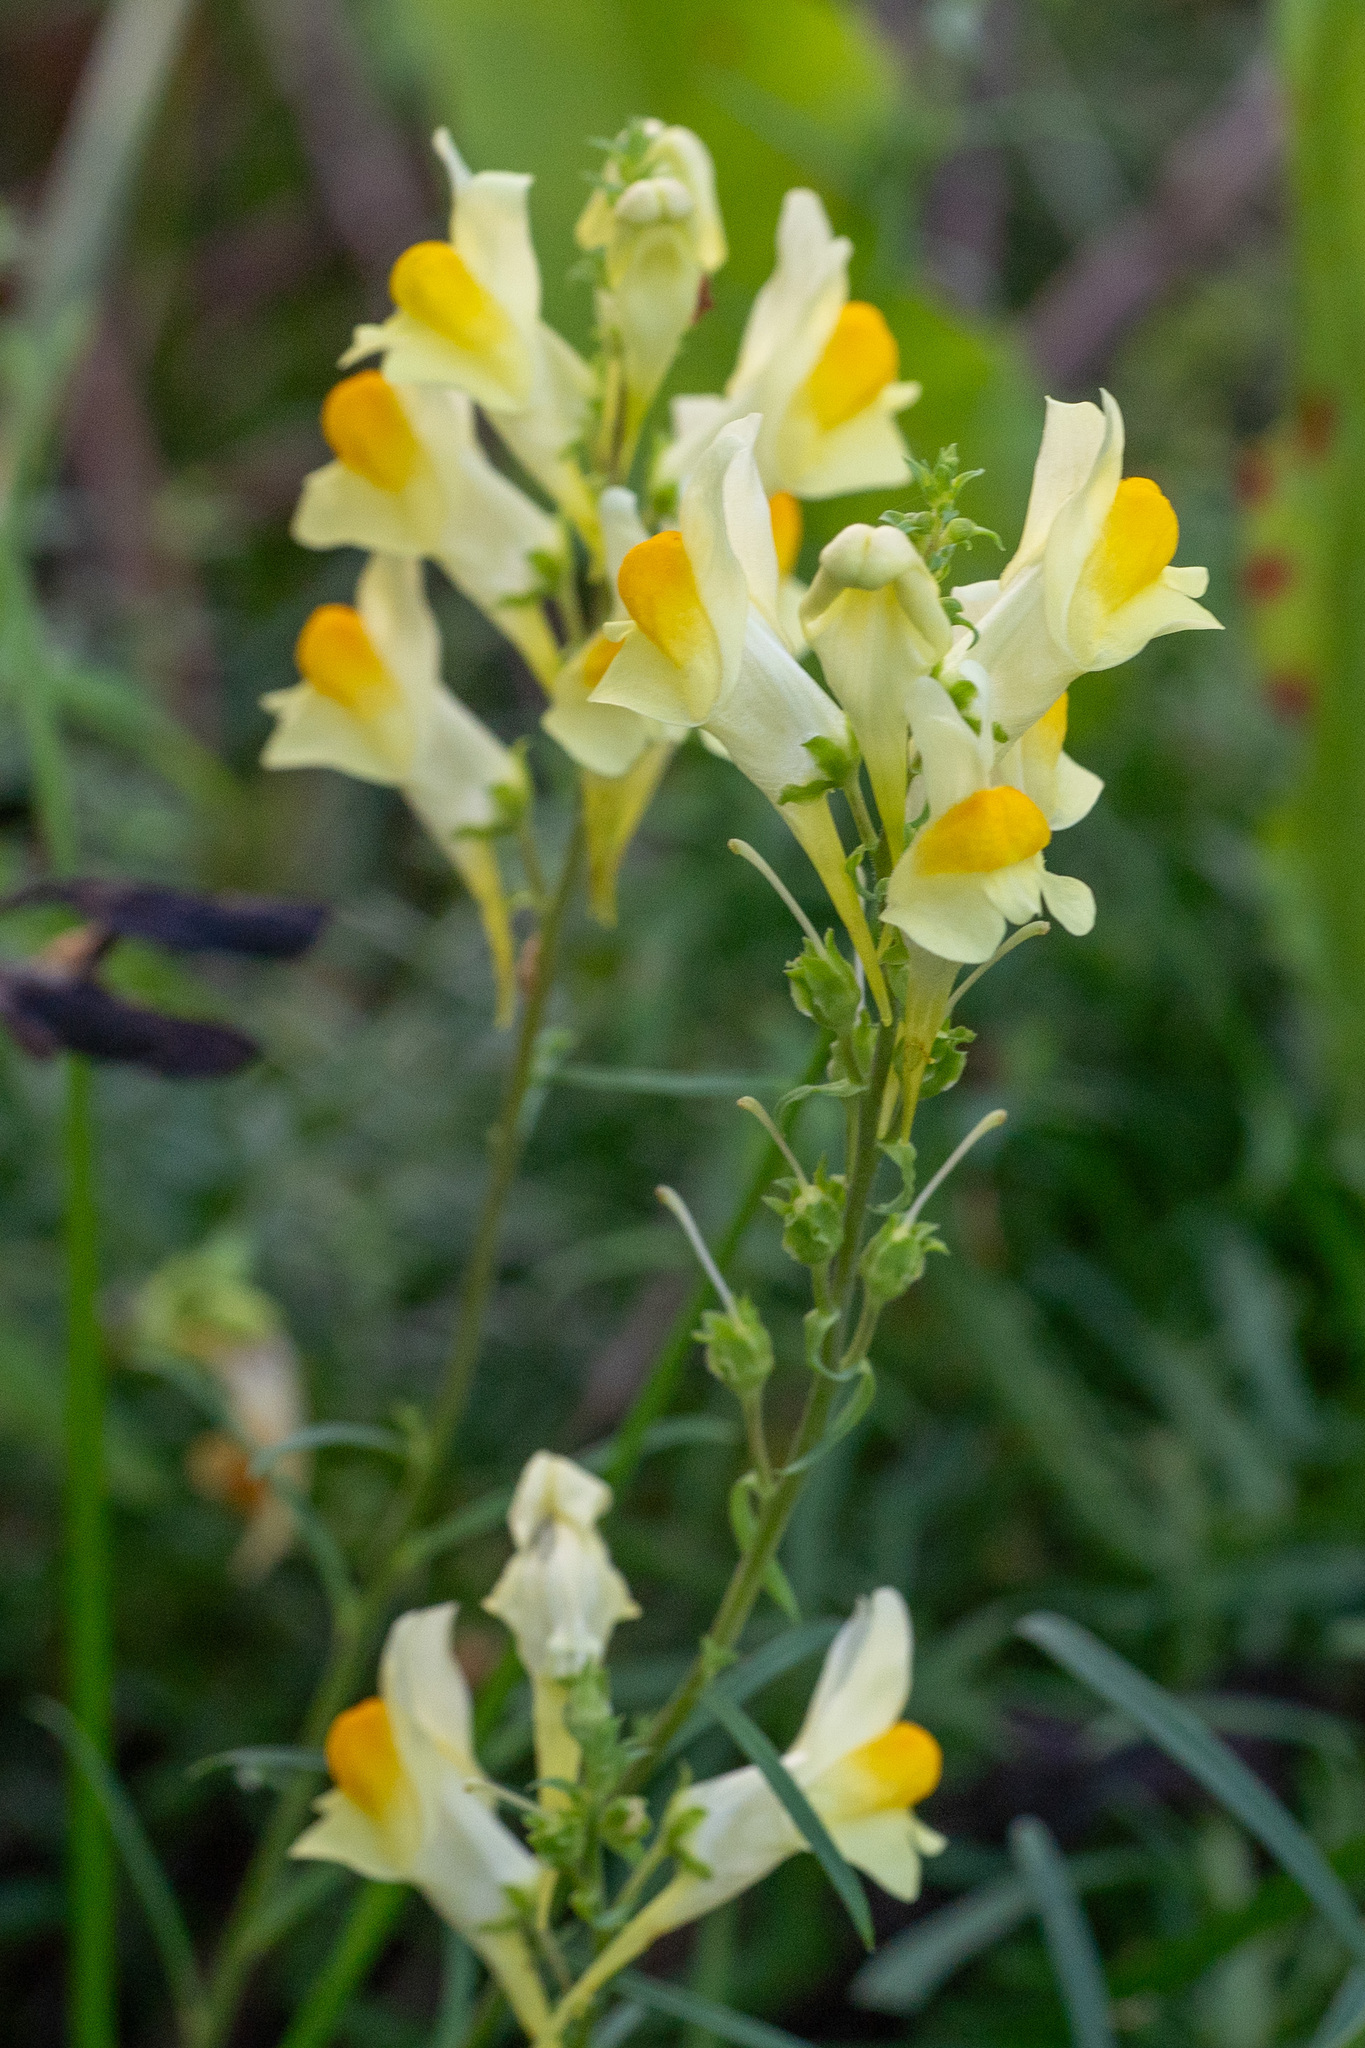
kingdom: Plantae
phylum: Tracheophyta
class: Magnoliopsida
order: Lamiales
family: Plantaginaceae
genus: Linaria
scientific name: Linaria vulgaris
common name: Butter and eggs
